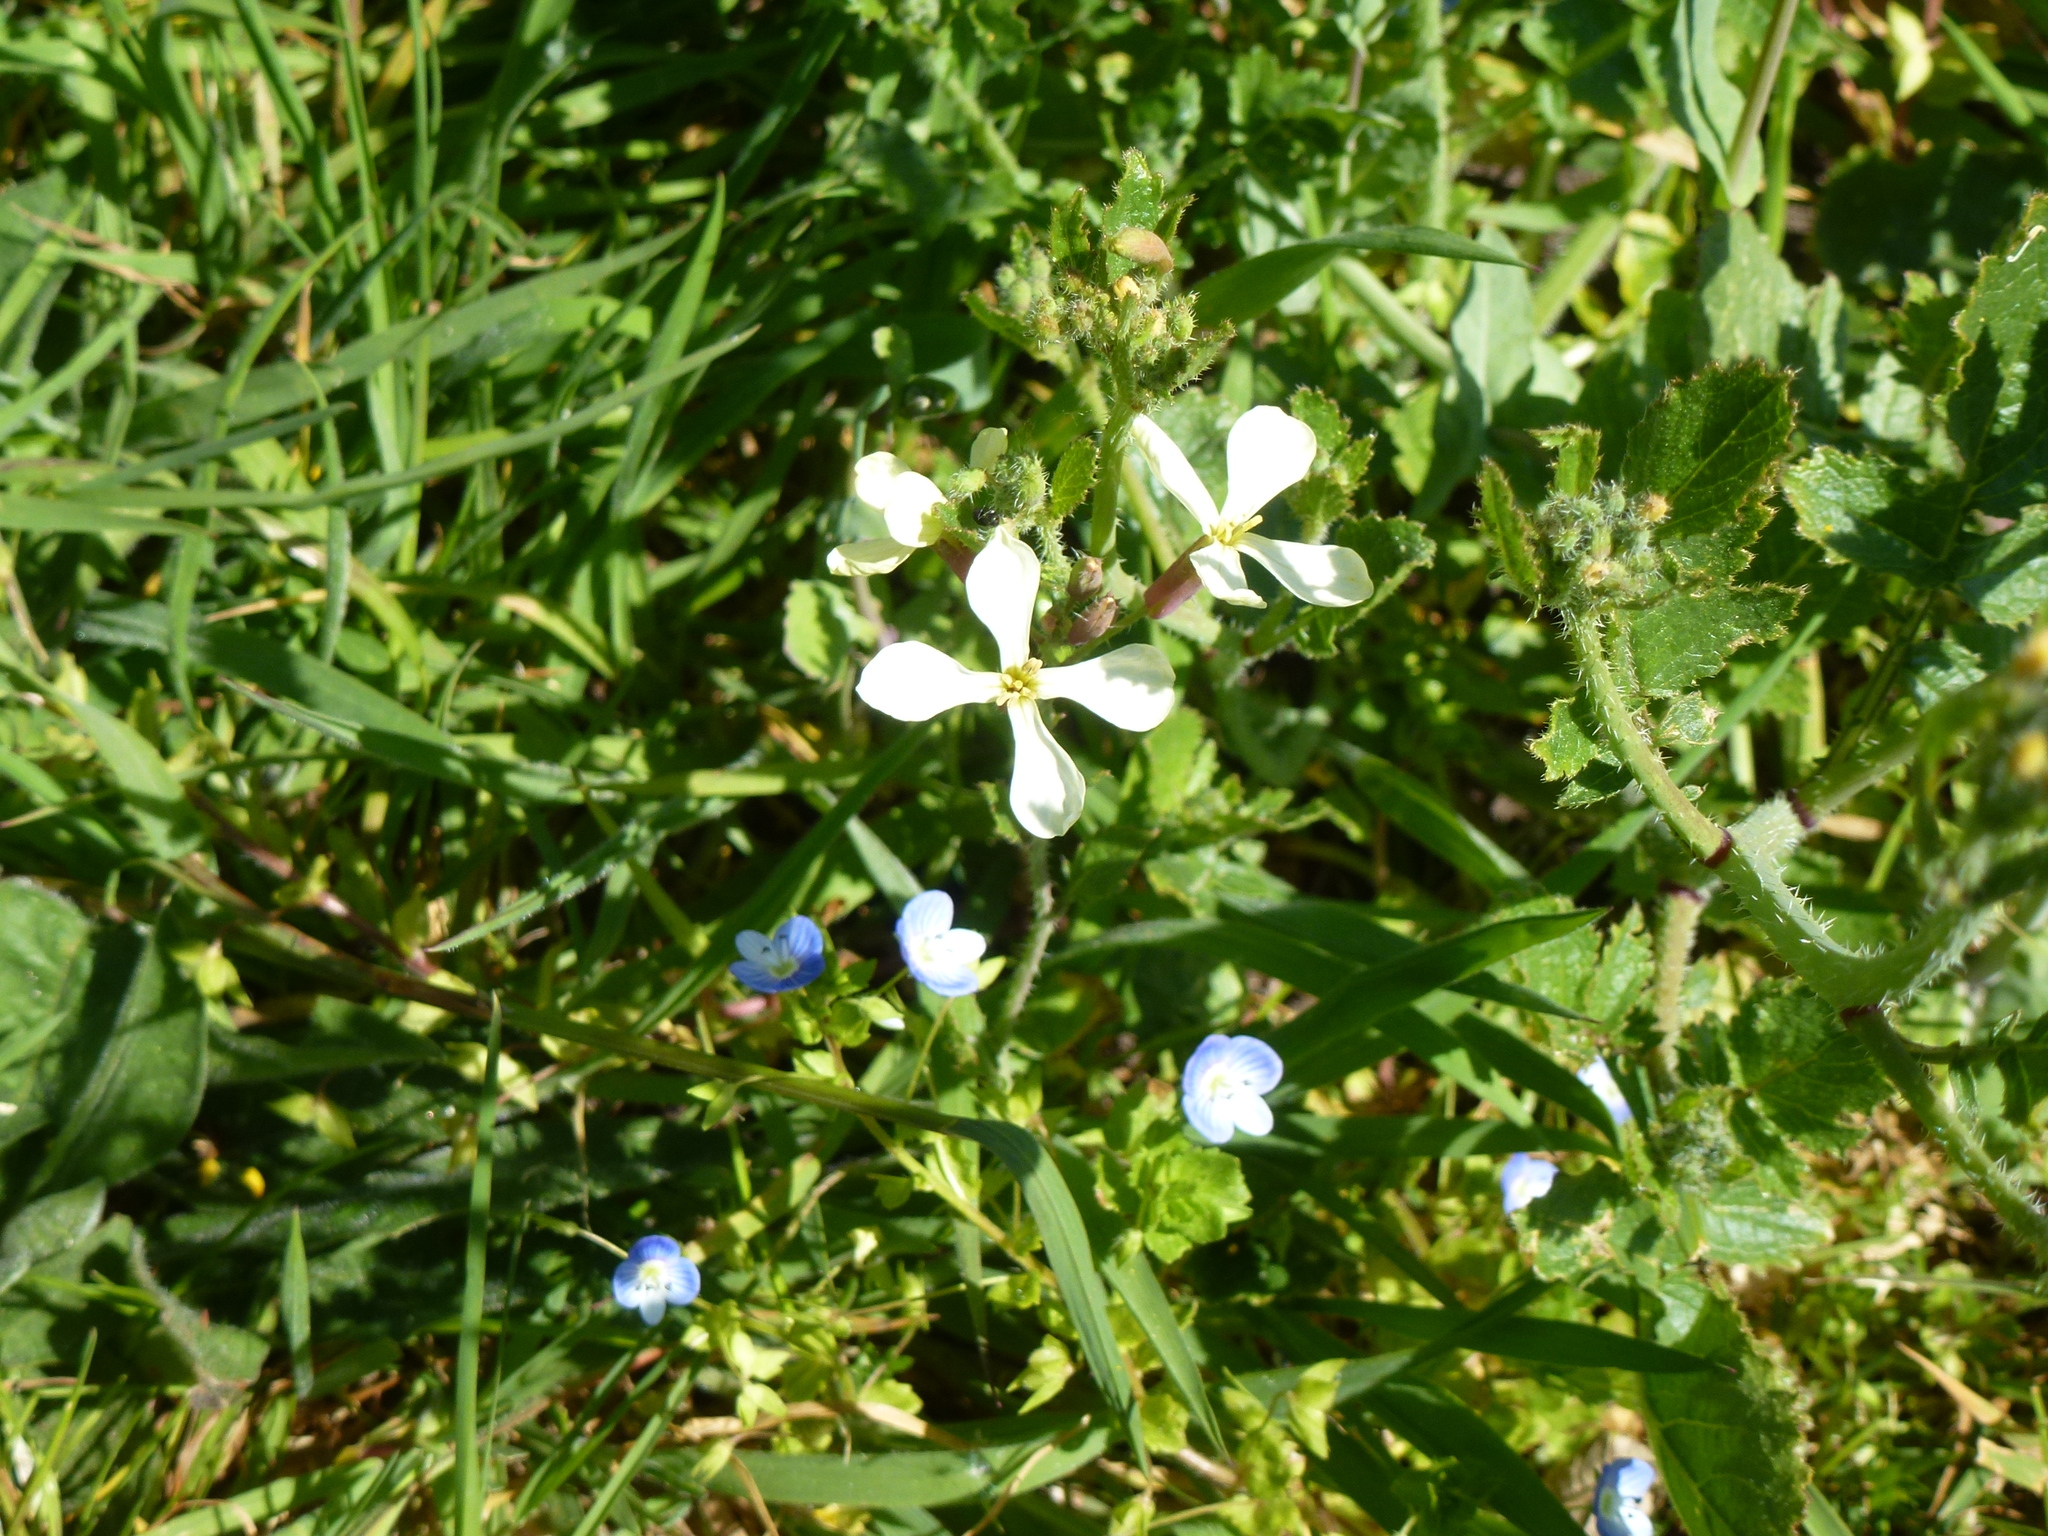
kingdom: Plantae
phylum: Tracheophyta
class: Magnoliopsida
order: Brassicales
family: Brassicaceae
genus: Raphanus
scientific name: Raphanus raphanistrum
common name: Wild radish
